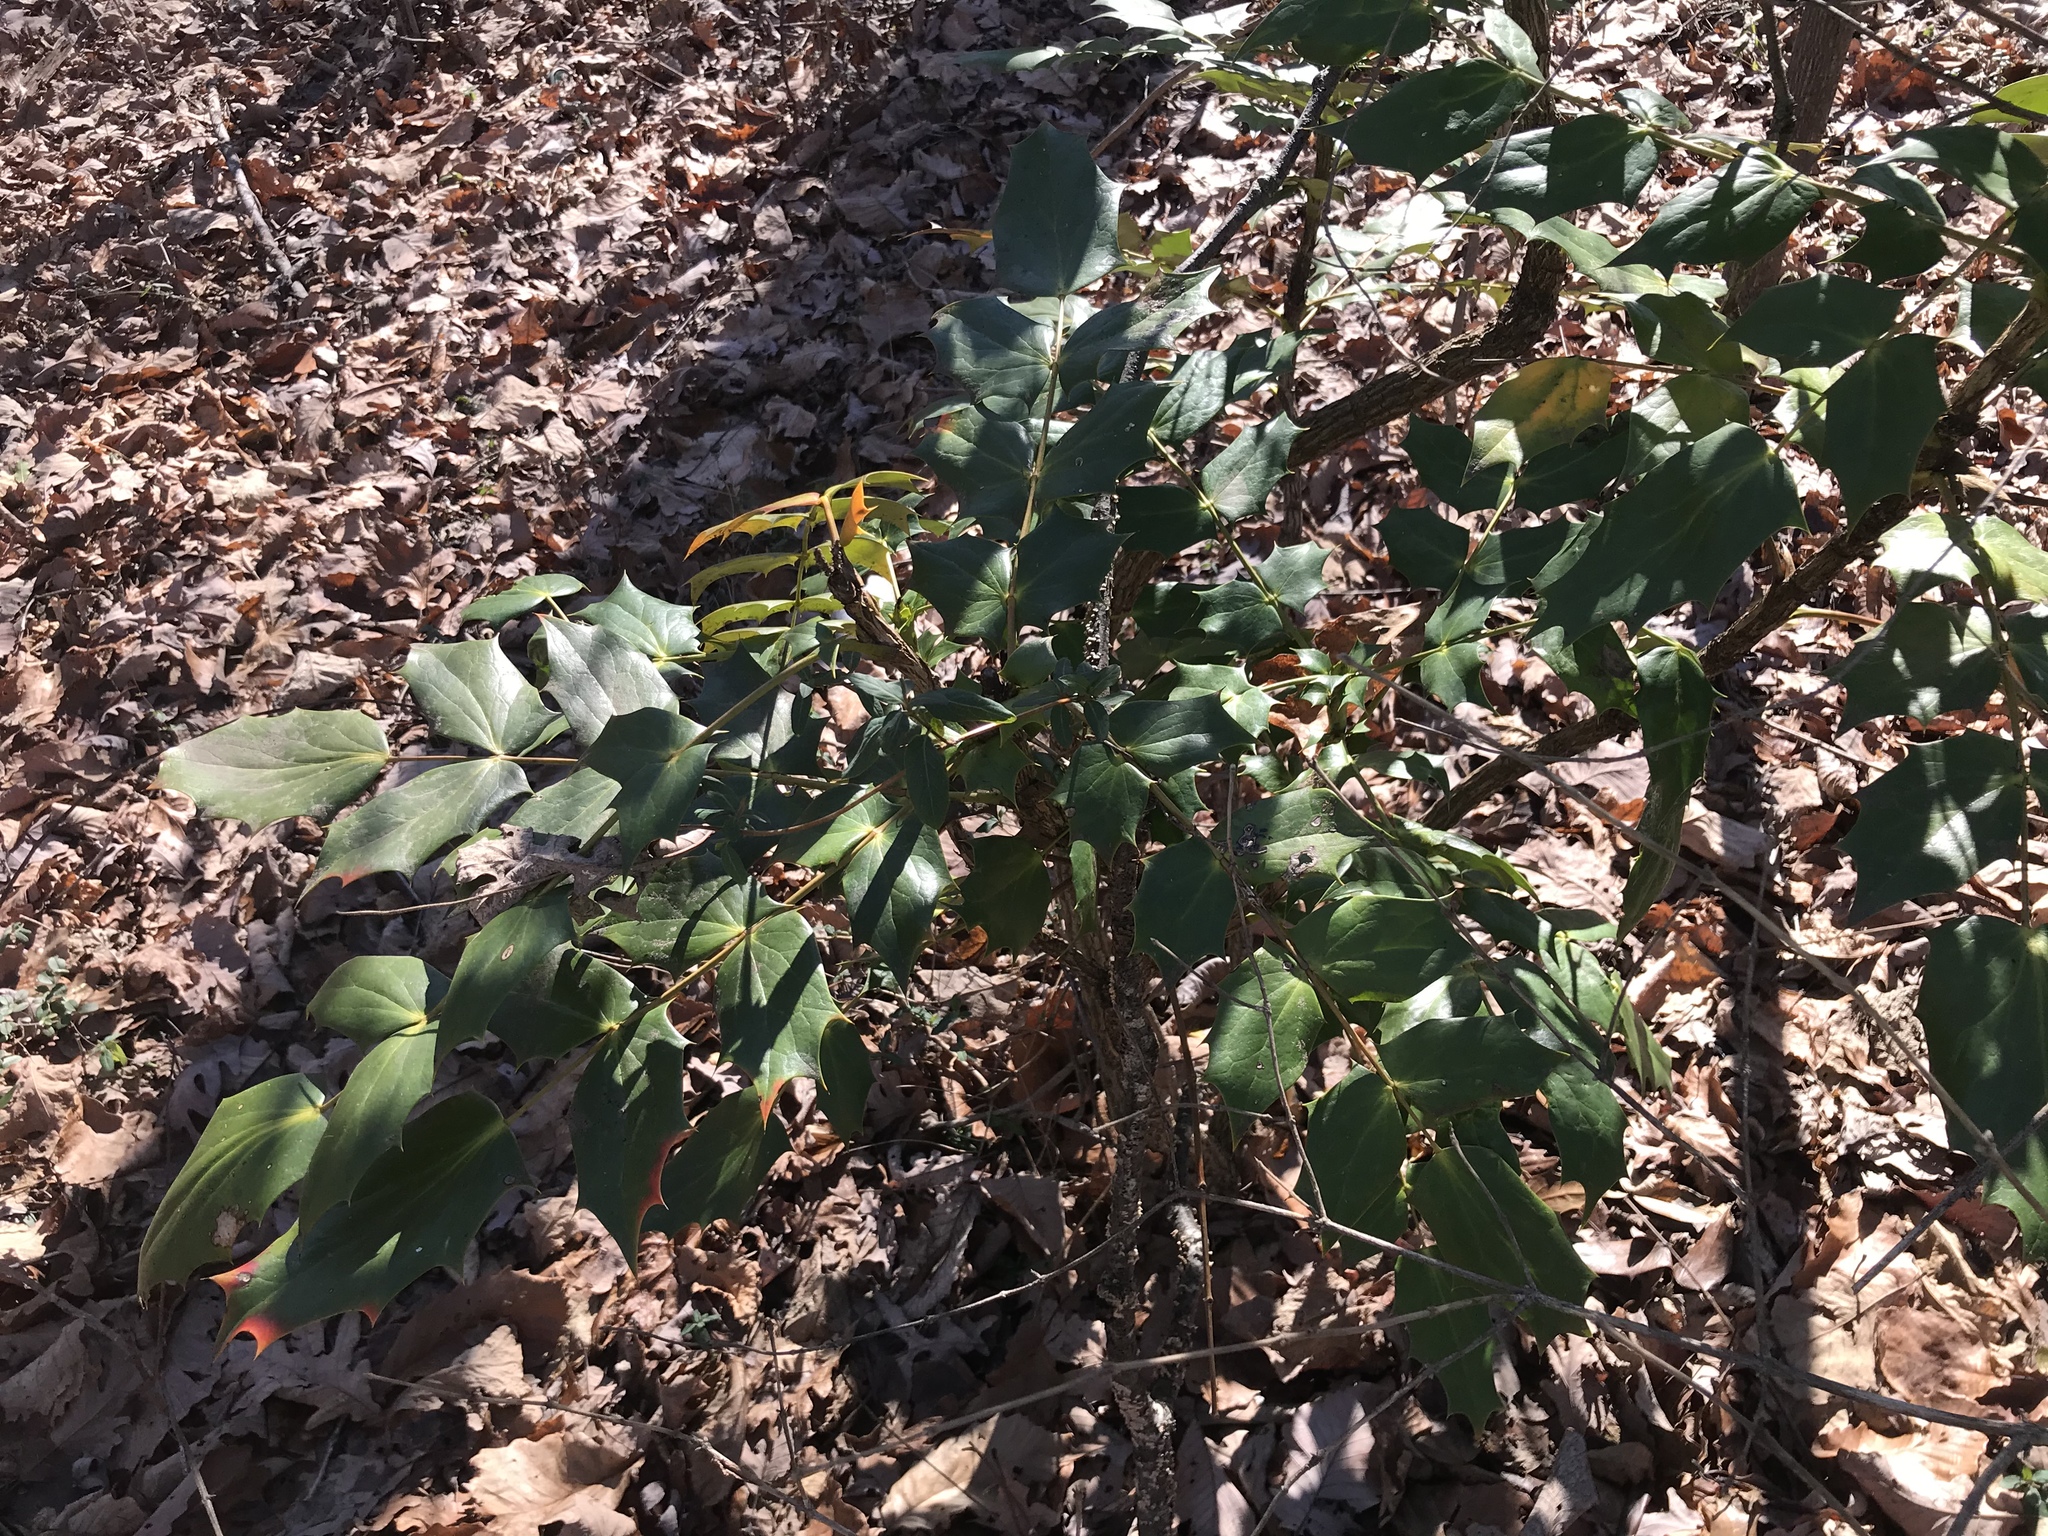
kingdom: Plantae
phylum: Tracheophyta
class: Magnoliopsida
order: Ranunculales
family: Berberidaceae
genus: Mahonia
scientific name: Mahonia bealei
